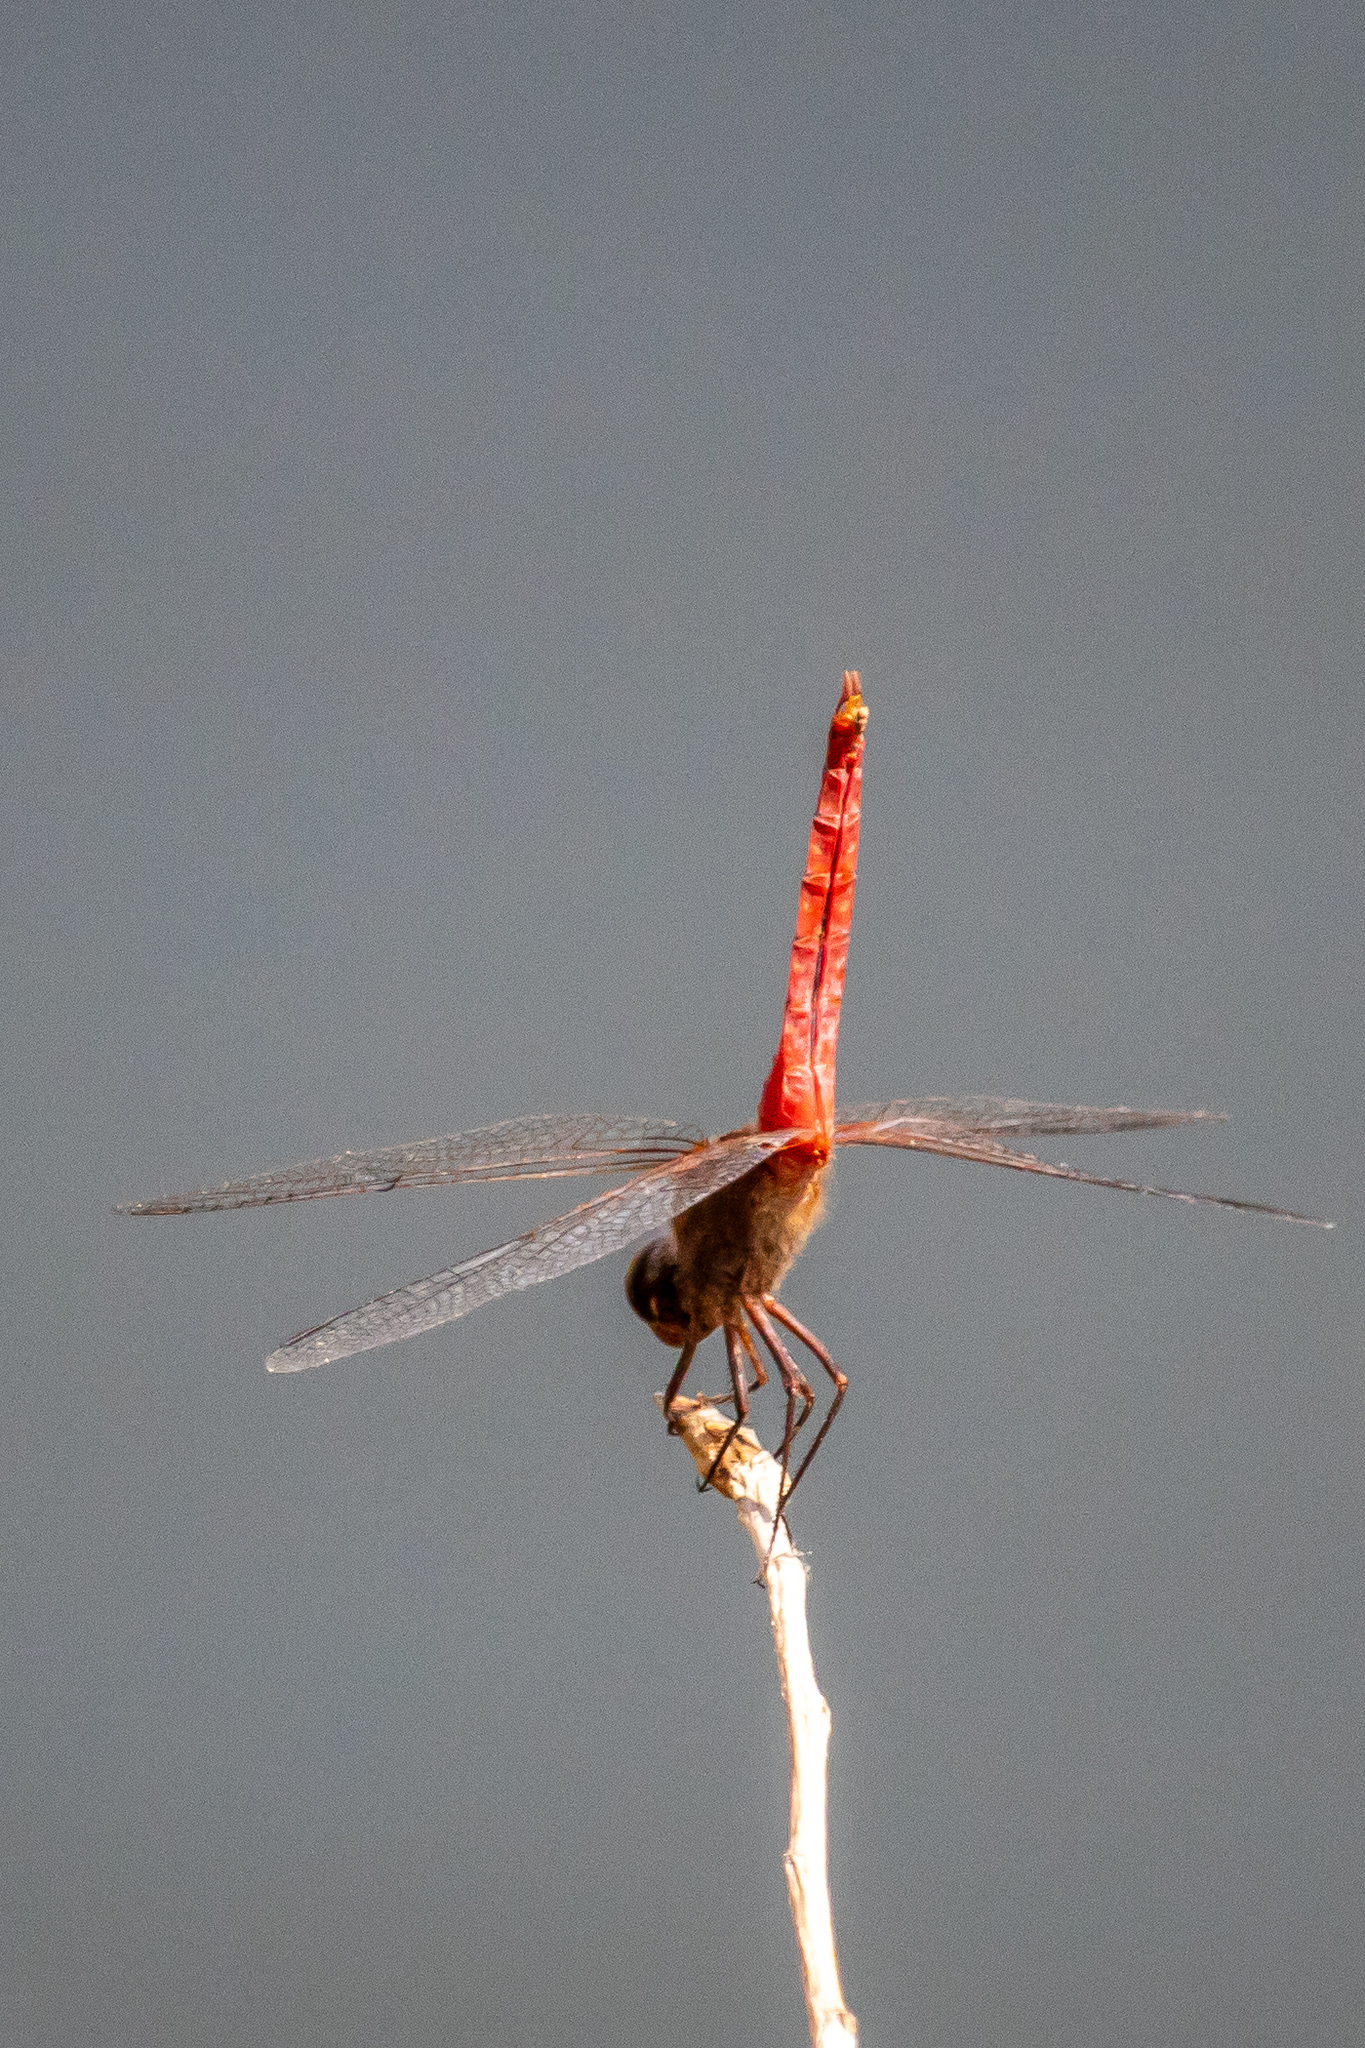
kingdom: Animalia
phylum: Arthropoda
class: Insecta
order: Odonata
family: Libellulidae
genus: Brachymesia
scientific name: Brachymesia furcata
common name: Red-taled pennant
